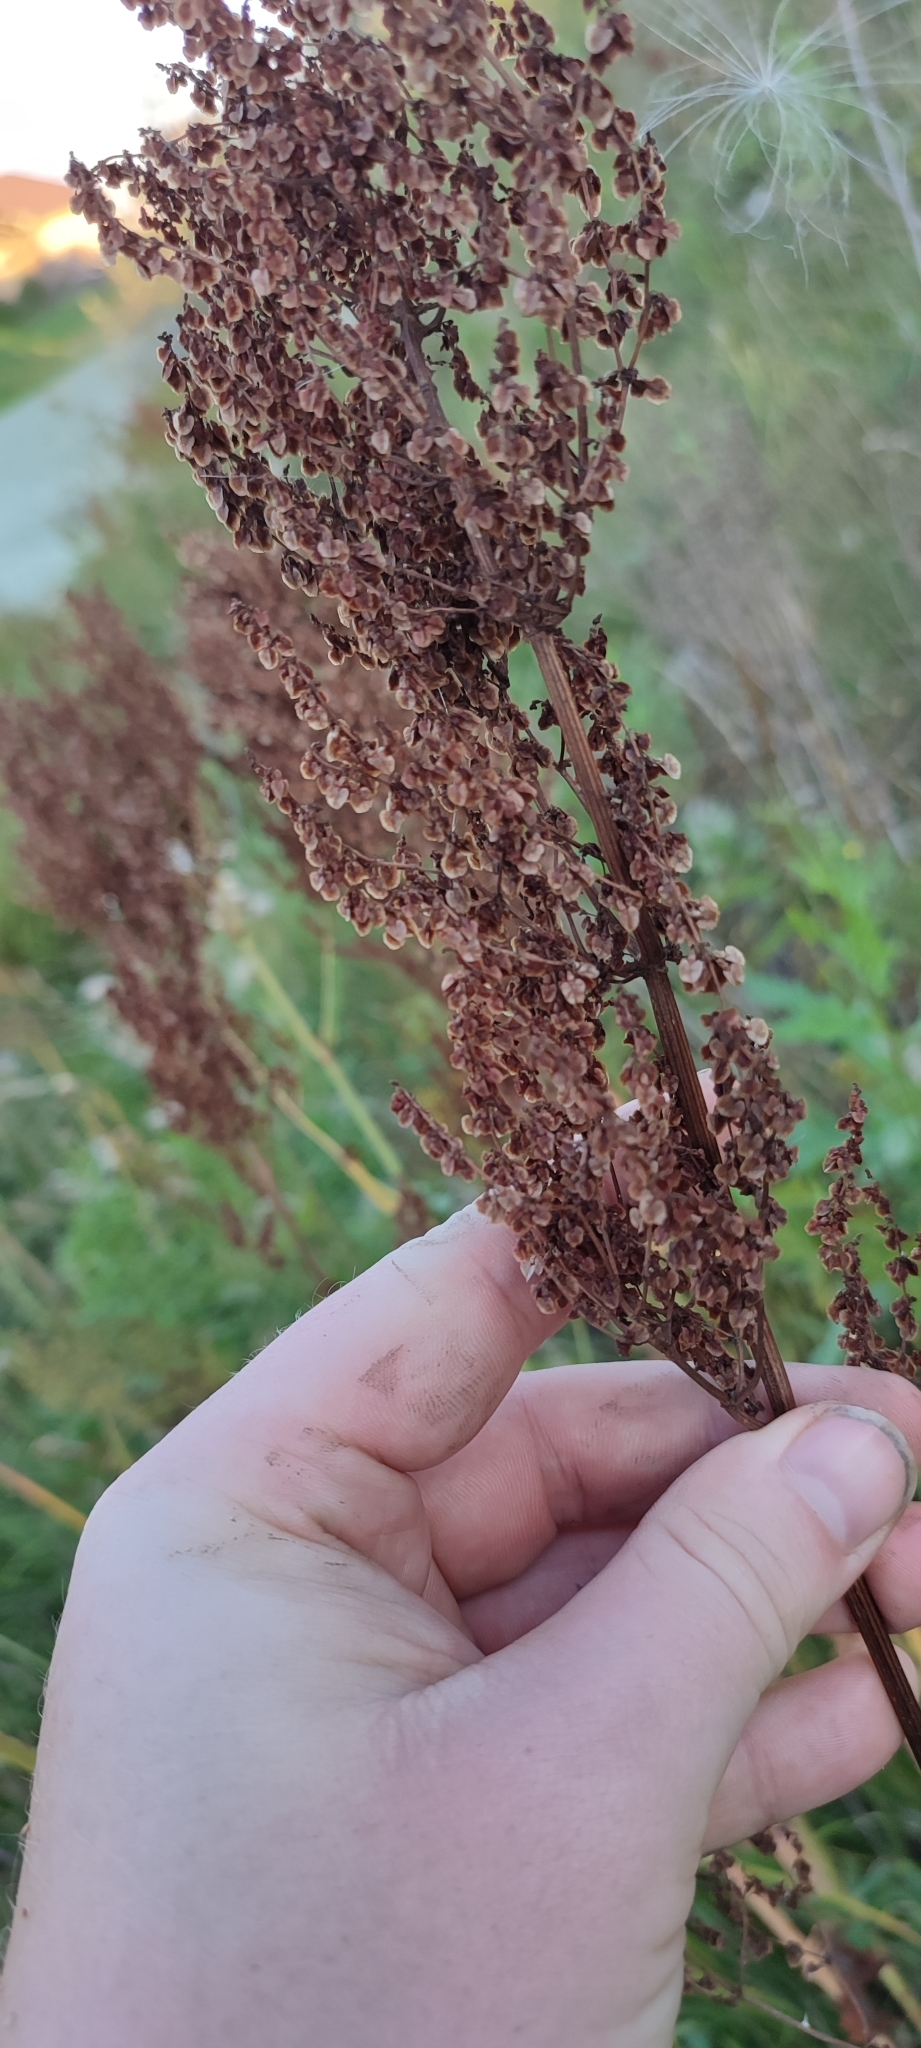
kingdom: Plantae
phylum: Tracheophyta
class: Magnoliopsida
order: Caryophyllales
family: Polygonaceae
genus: Rumex
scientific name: Rumex thyrsiflorus
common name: Garden sorrel
